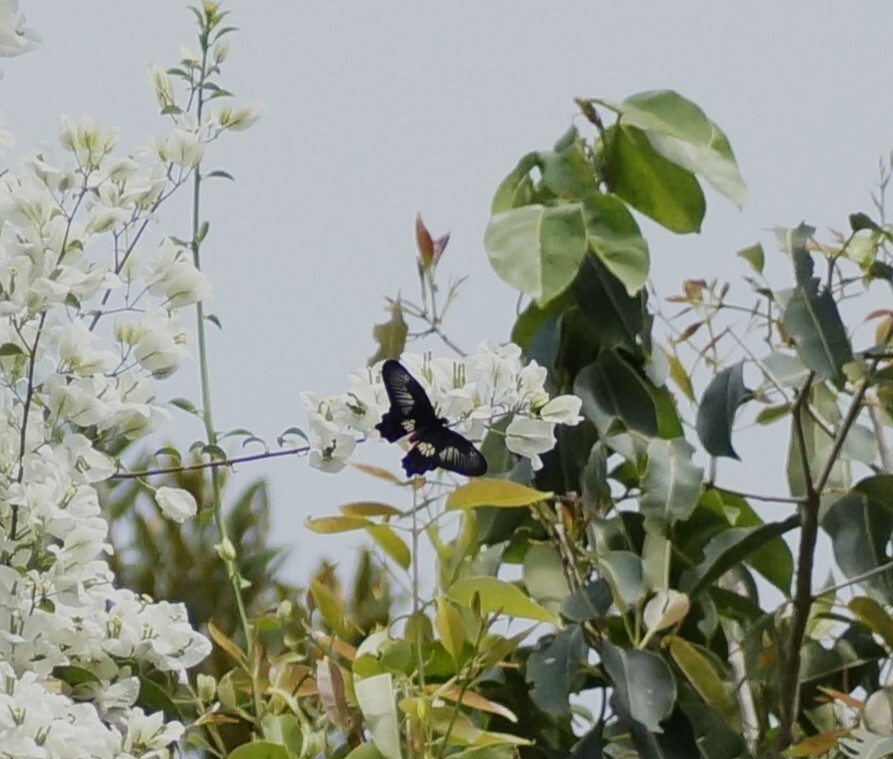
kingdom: Animalia
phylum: Arthropoda
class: Insecta
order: Lepidoptera
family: Papilionidae
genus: Pachliopta
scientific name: Pachliopta polydorus
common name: Red-bodied swallowtail
